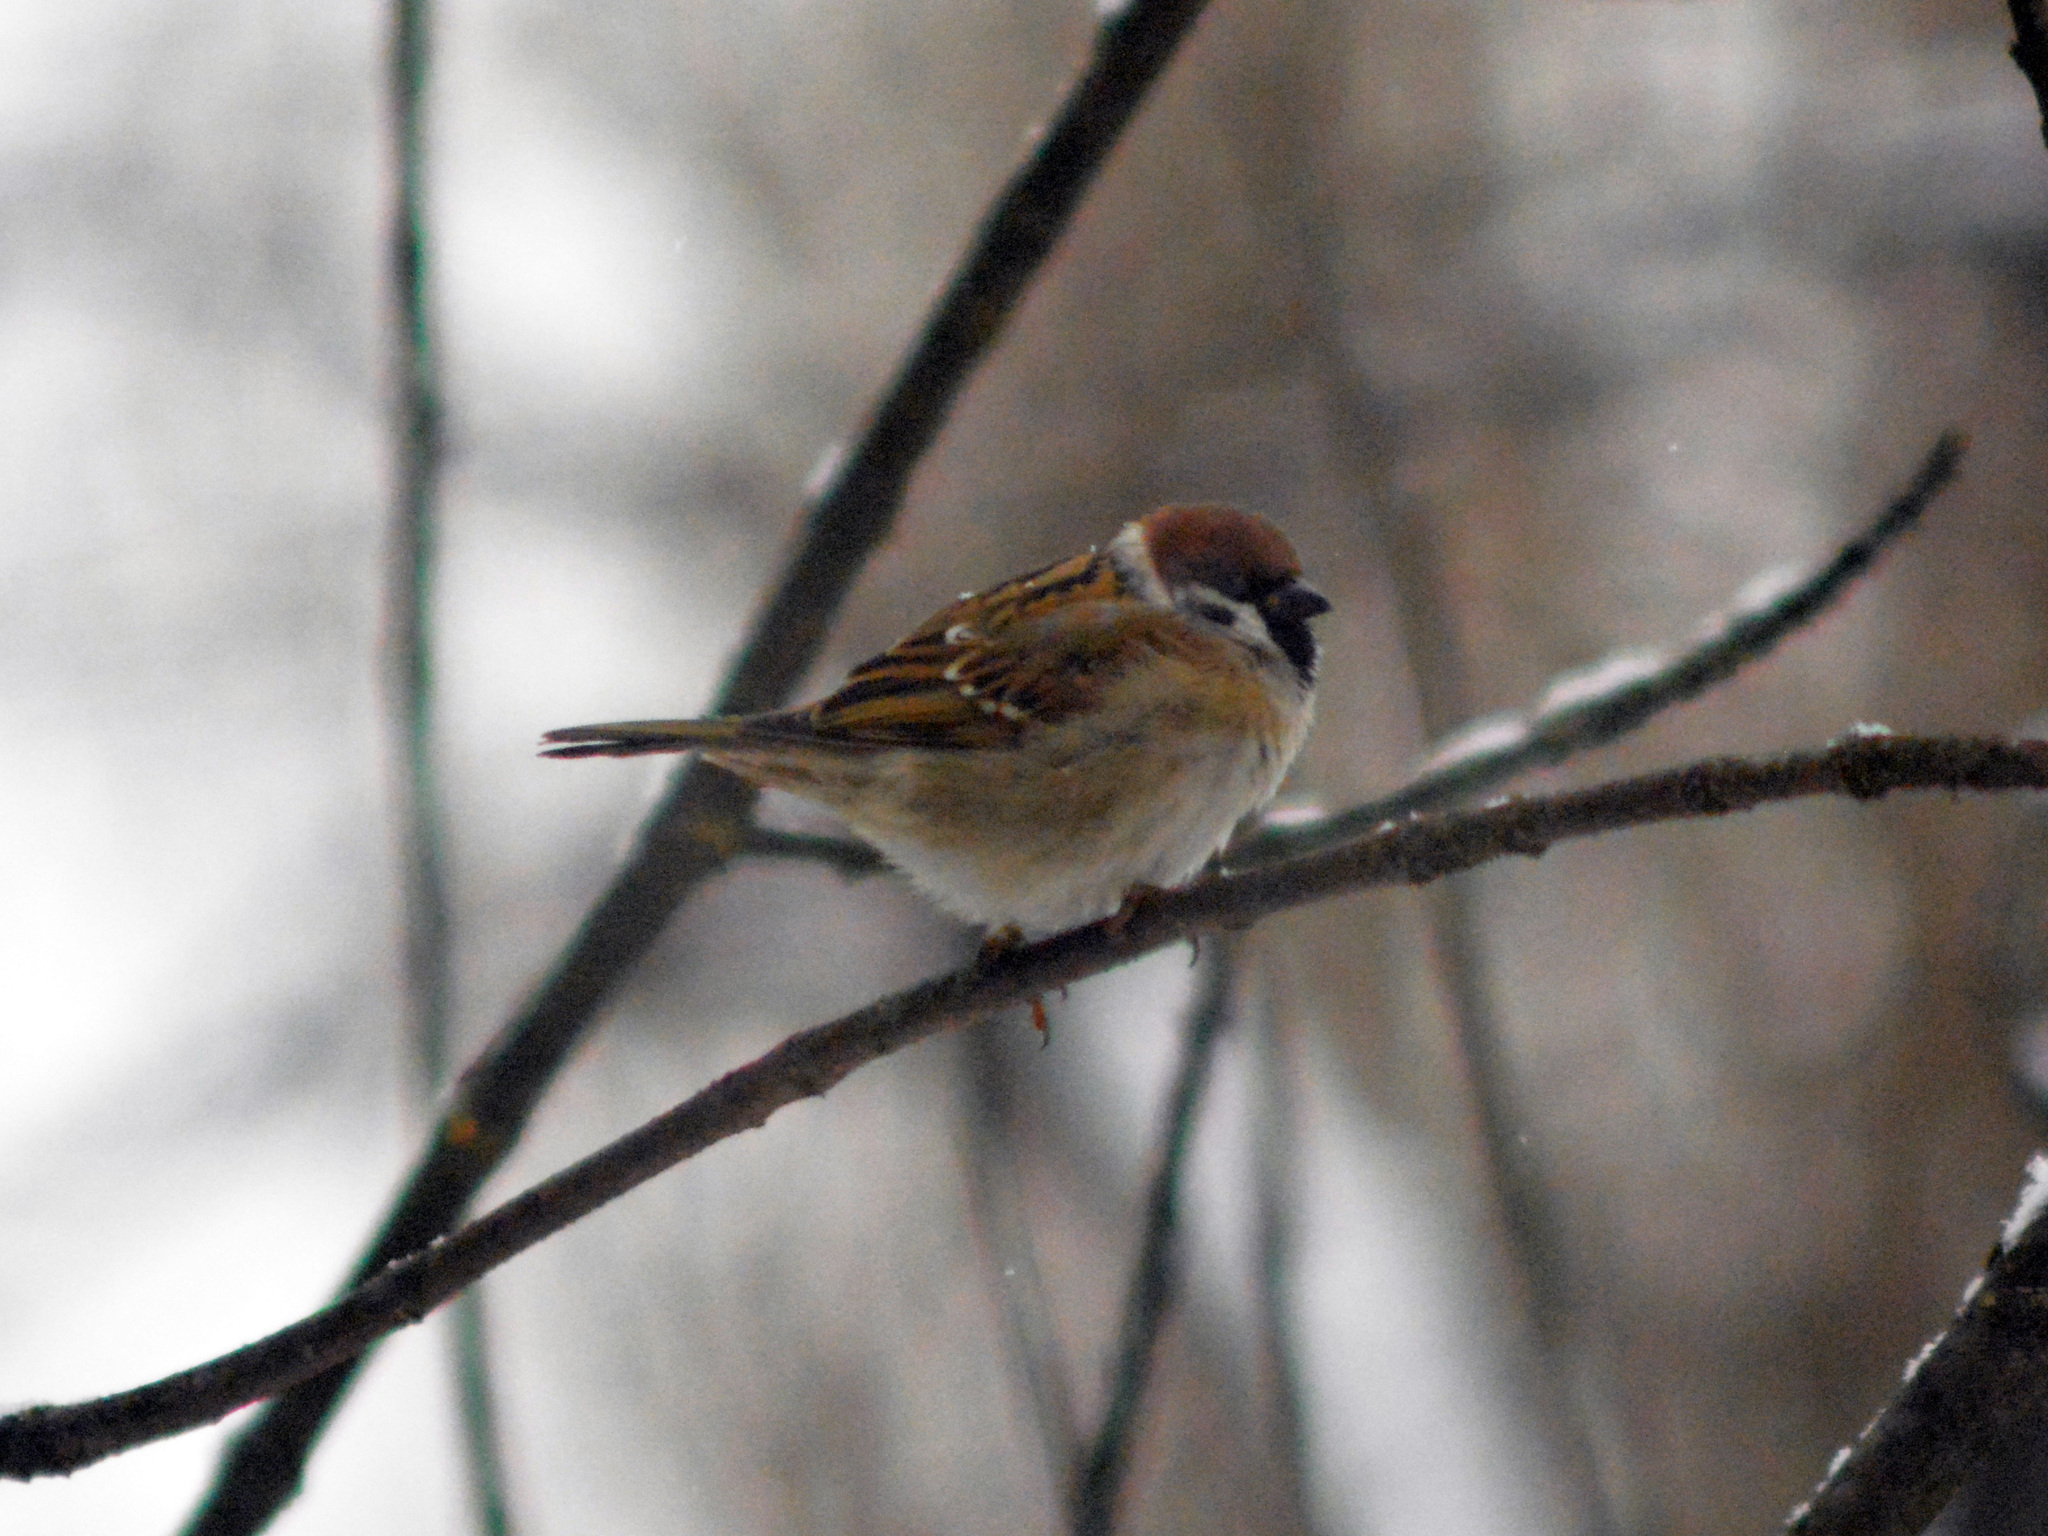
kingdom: Animalia
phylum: Chordata
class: Aves
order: Passeriformes
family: Passeridae
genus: Passer
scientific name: Passer montanus
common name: Eurasian tree sparrow
